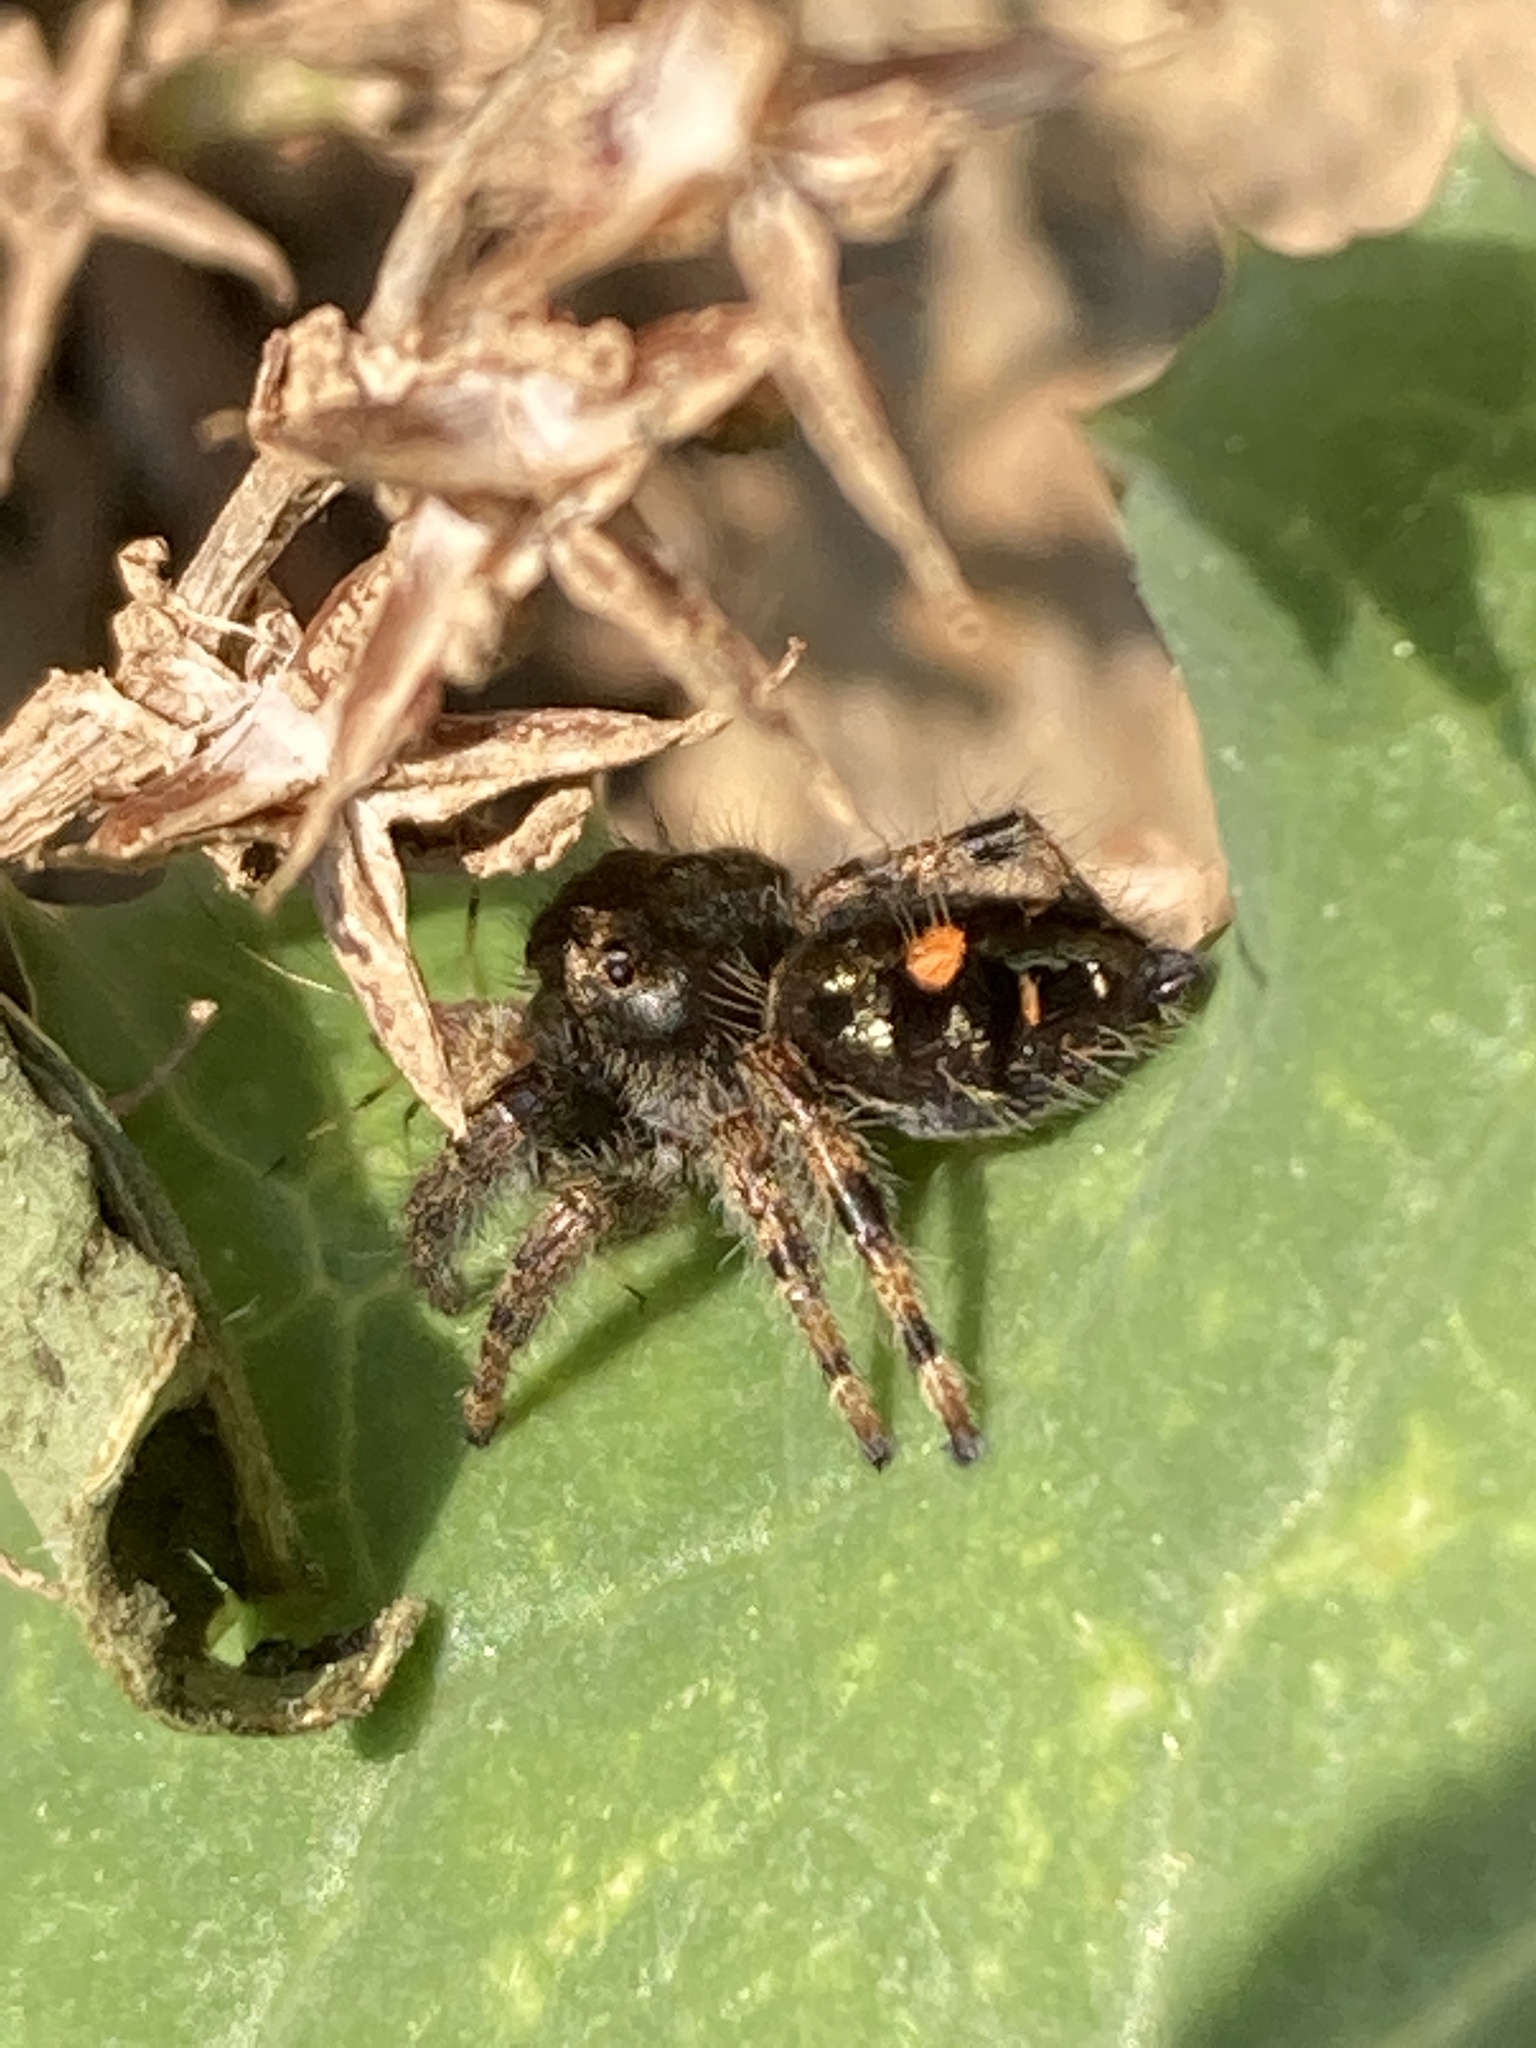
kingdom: Animalia
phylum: Arthropoda
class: Arachnida
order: Araneae
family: Salticidae
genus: Phidippus
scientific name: Phidippus audax
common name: Bold jumper
